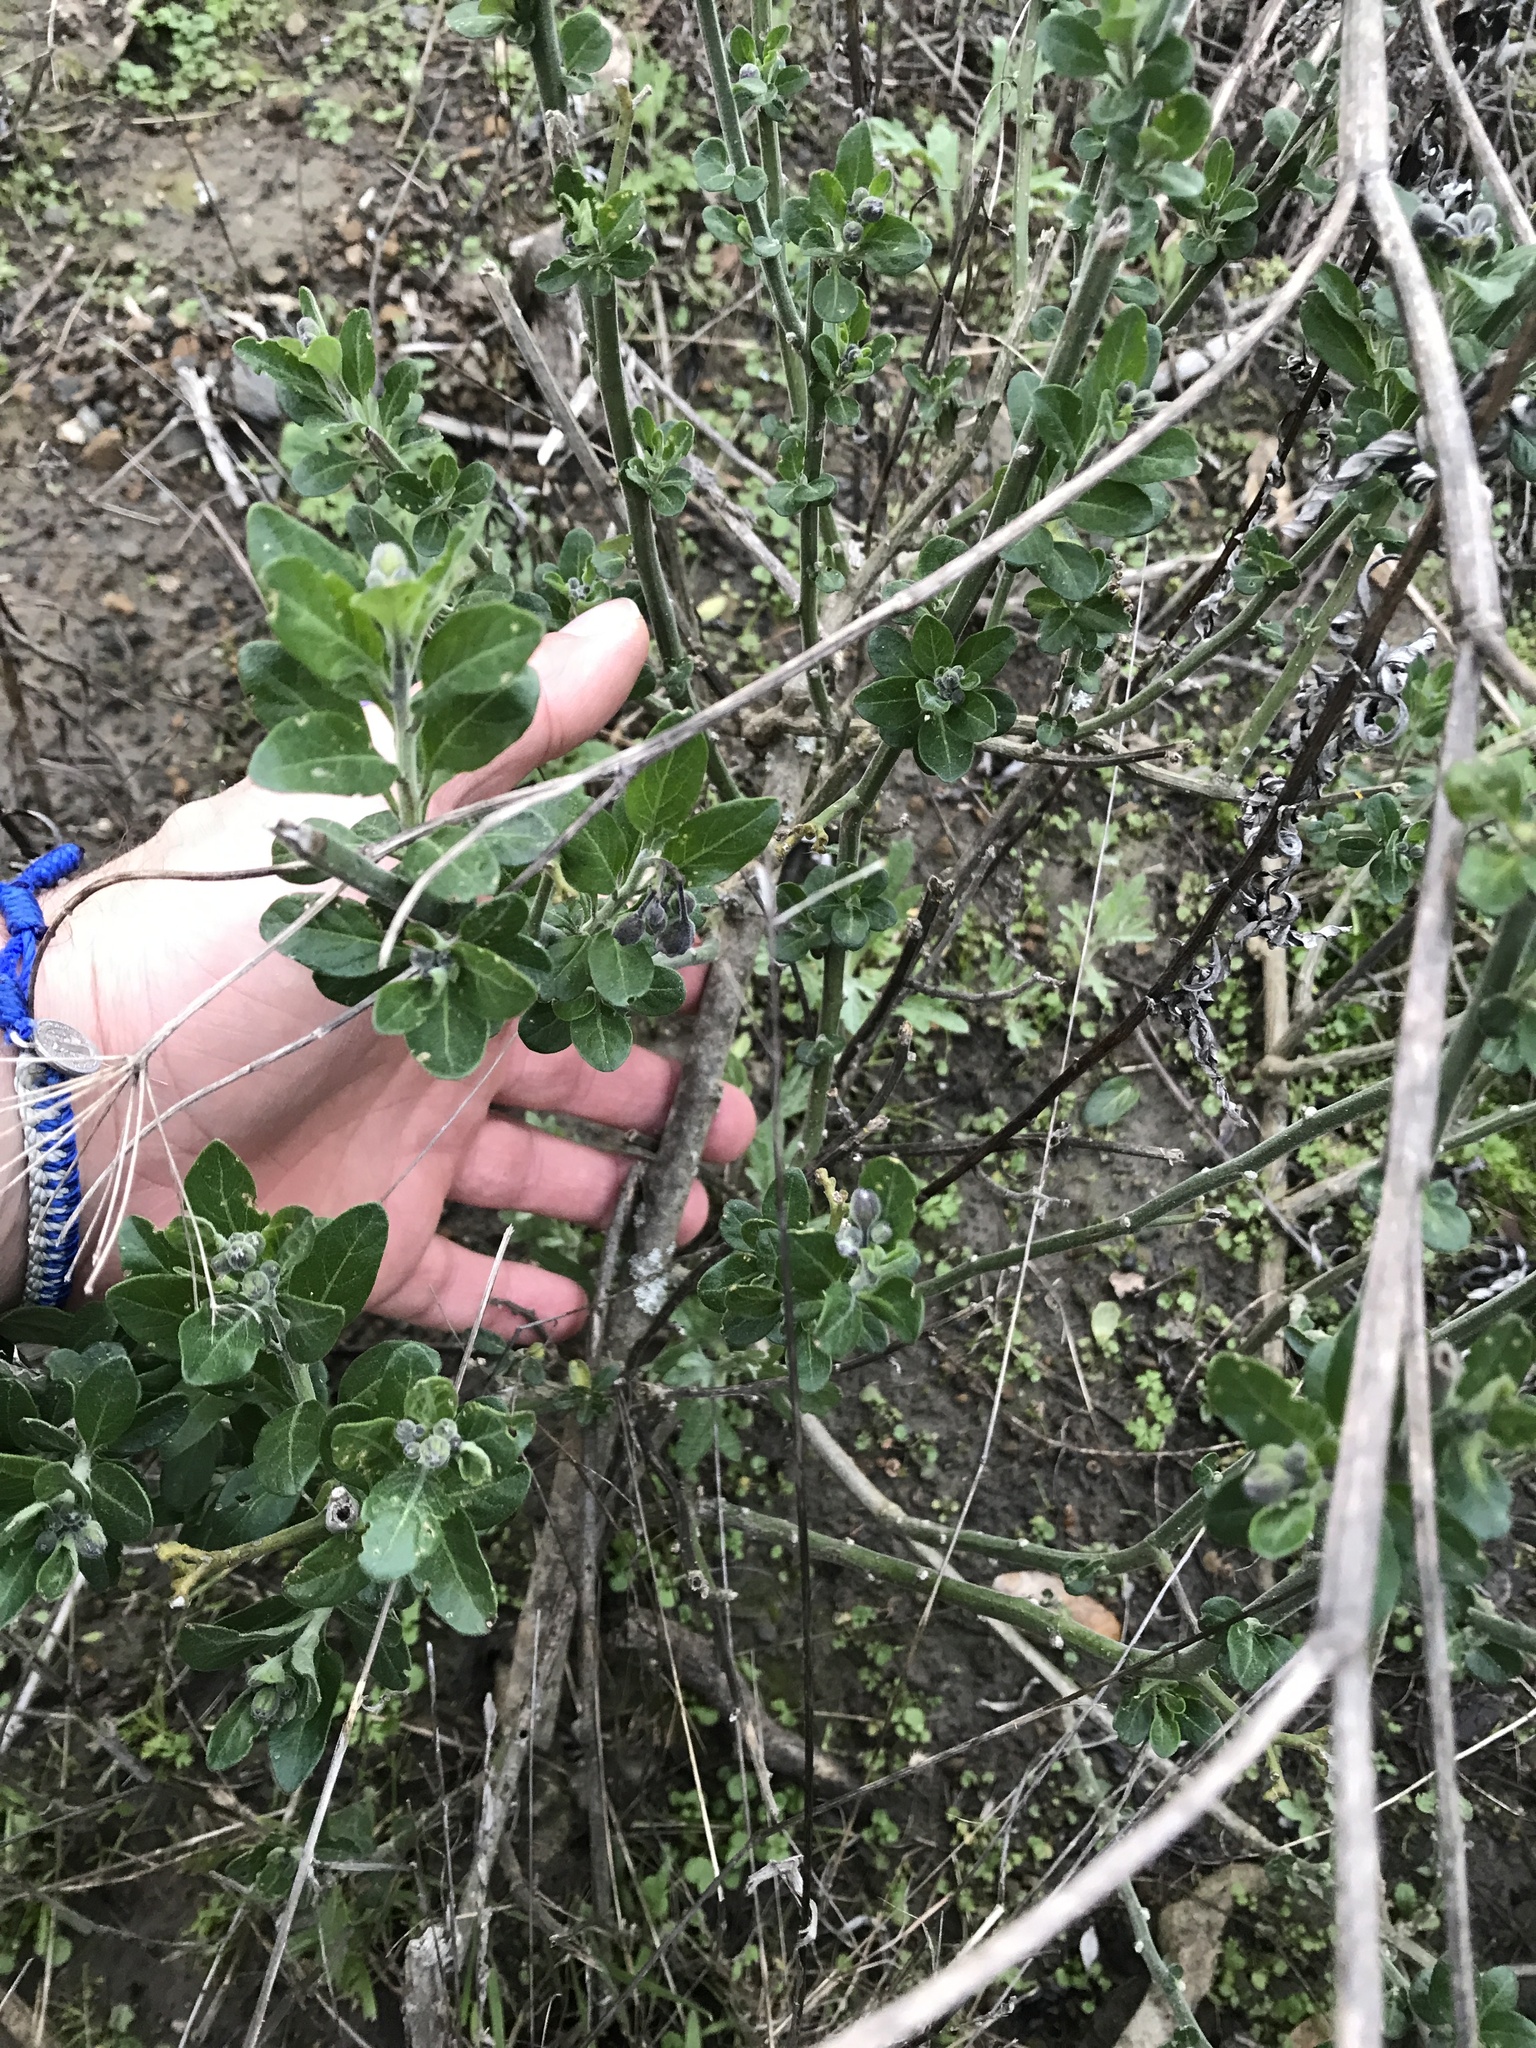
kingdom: Plantae
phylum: Tracheophyta
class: Magnoliopsida
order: Solanales
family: Solanaceae
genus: Solanum
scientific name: Solanum umbelliferum
